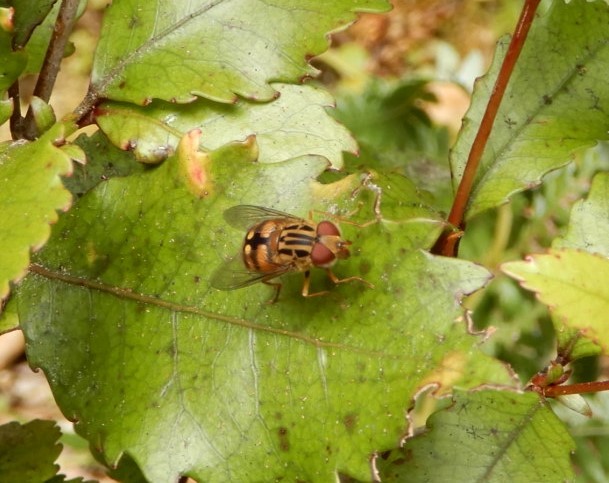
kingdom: Animalia
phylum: Arthropoda
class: Insecta
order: Diptera
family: Syrphidae
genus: Helophilus
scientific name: Helophilus campbelli
